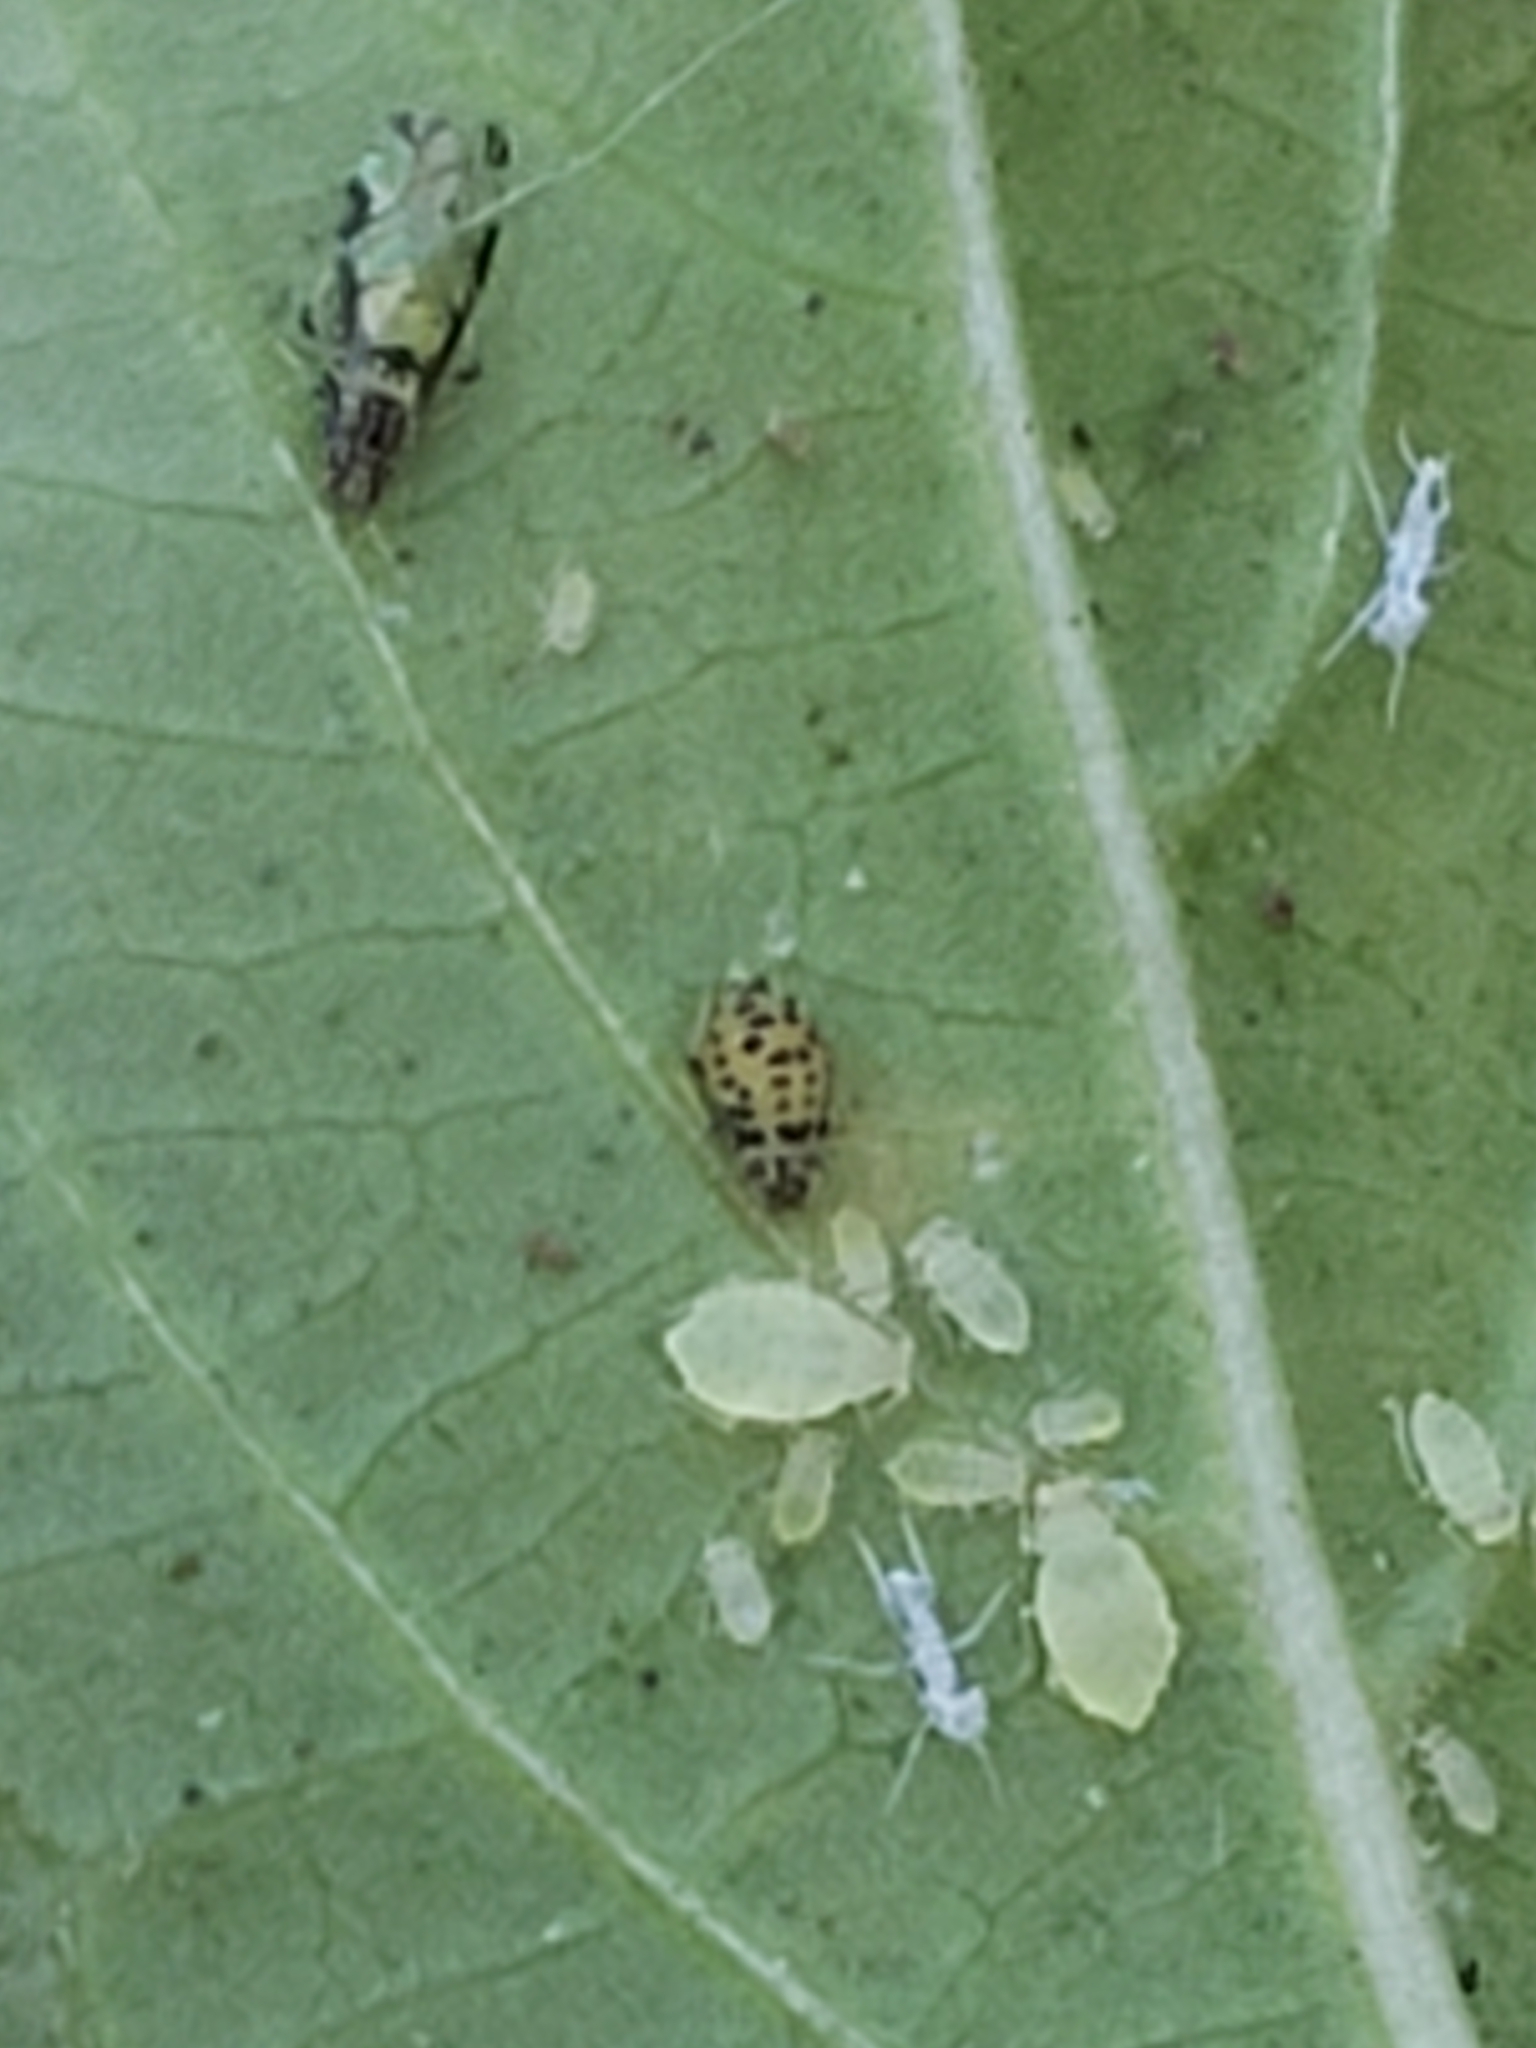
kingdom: Animalia
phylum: Arthropoda
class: Insecta
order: Hemiptera
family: Aphididae
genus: Sarucallis
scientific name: Sarucallis kahawaluokalani
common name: Crapemyrtle aphid
